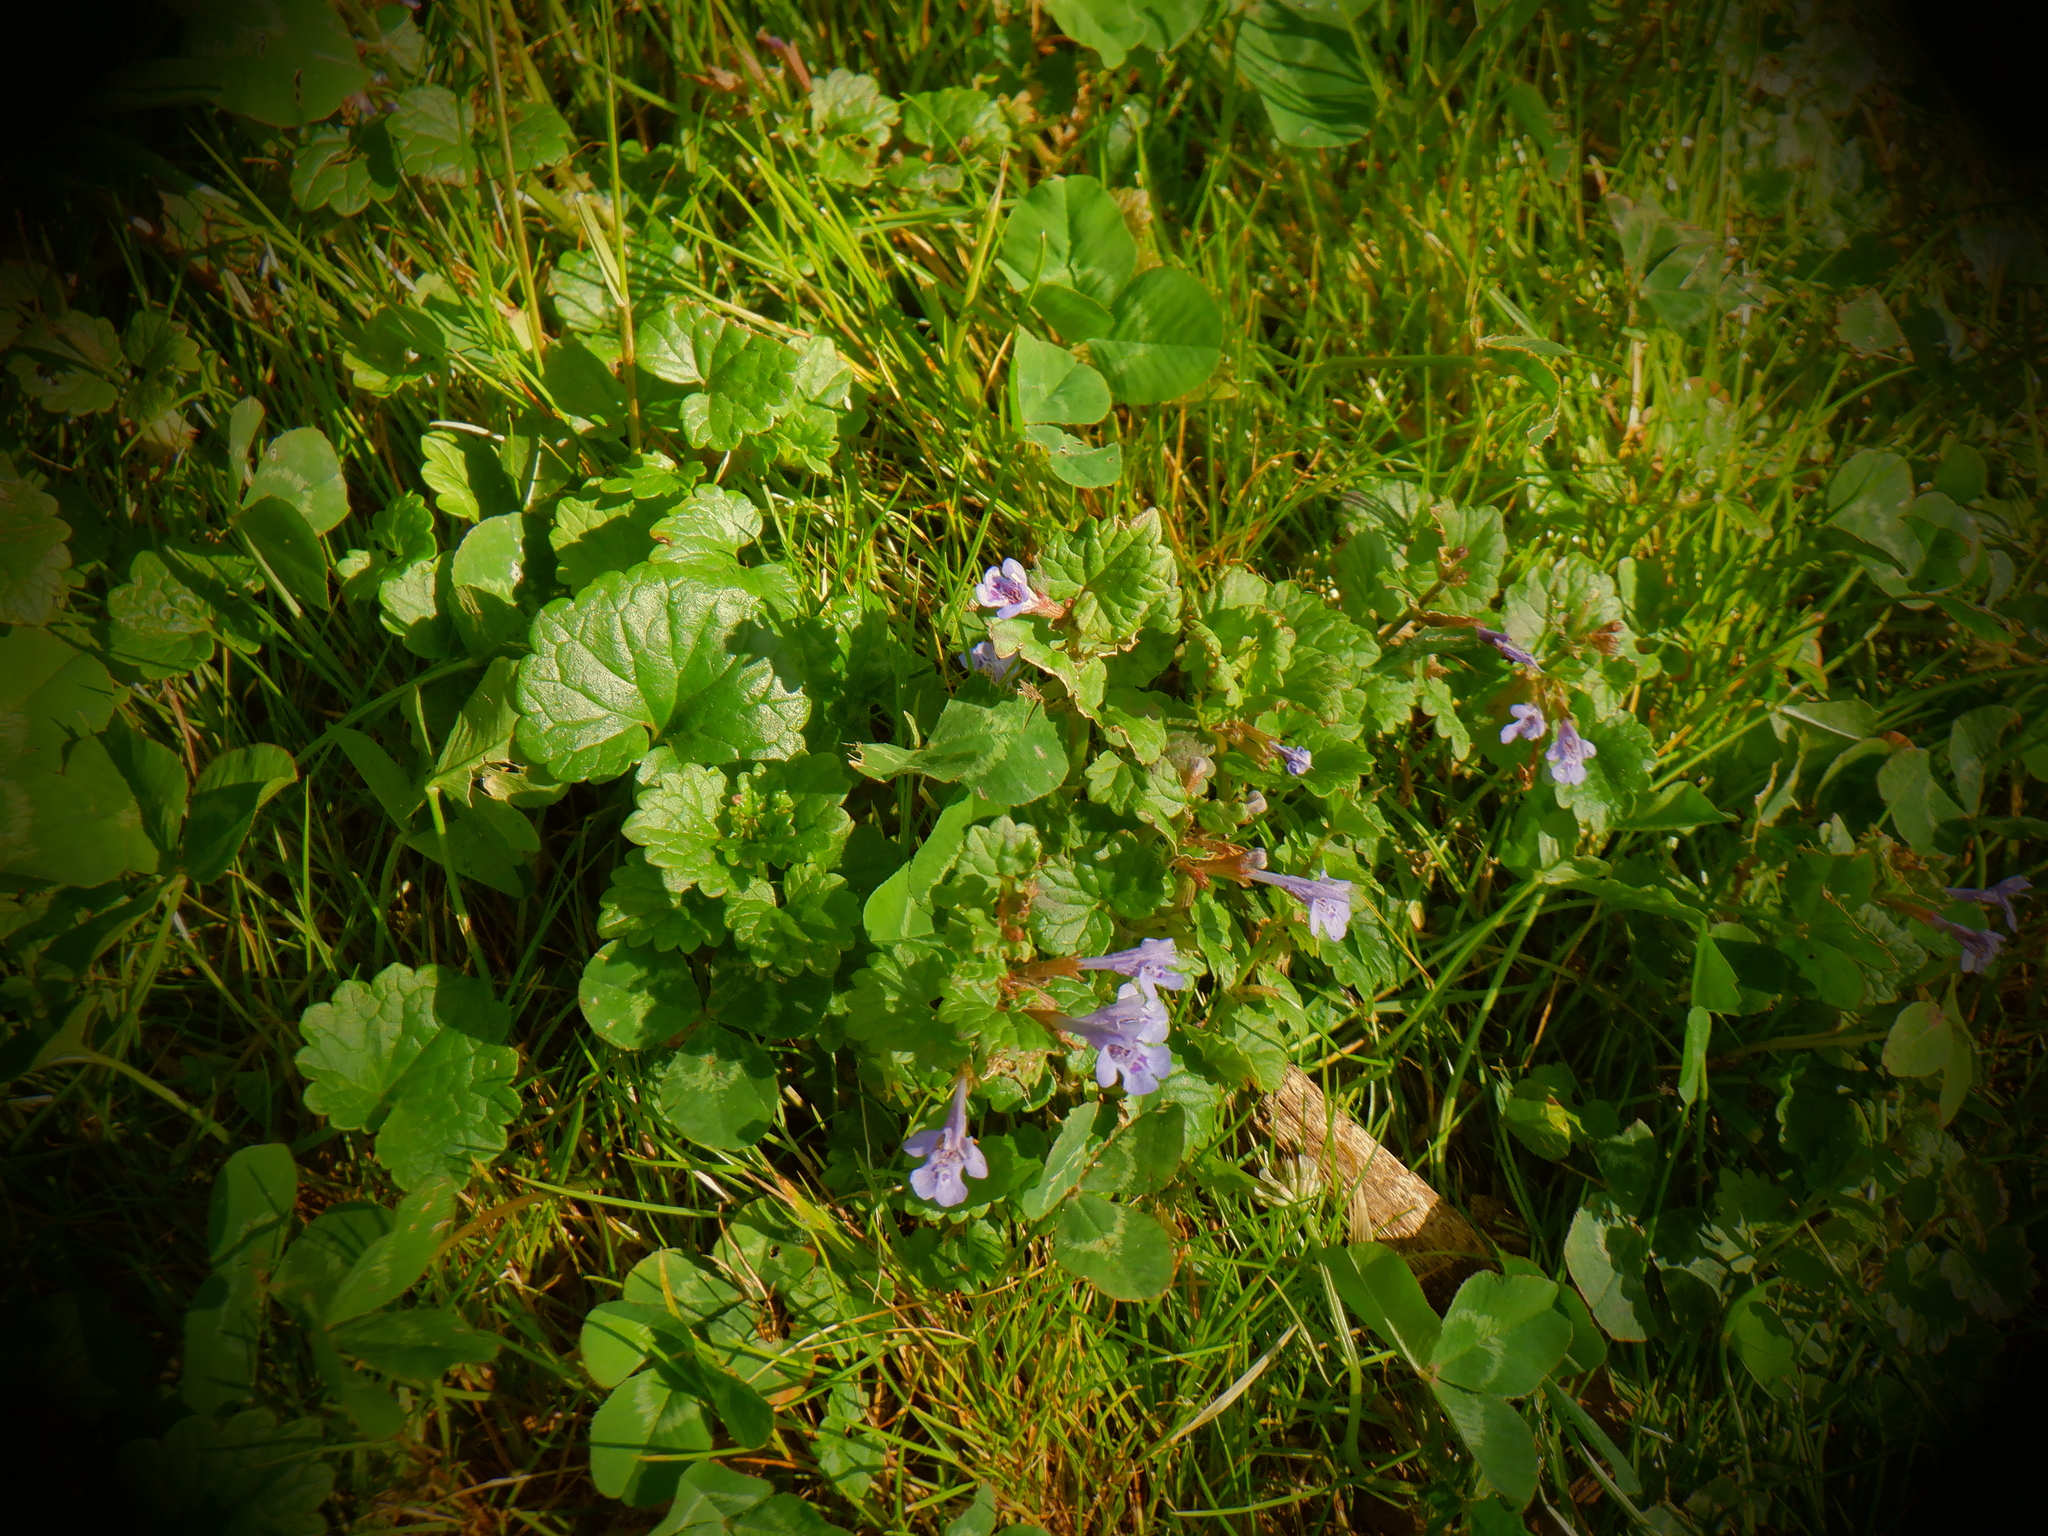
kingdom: Plantae
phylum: Tracheophyta
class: Magnoliopsida
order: Lamiales
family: Lamiaceae
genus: Glechoma
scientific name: Glechoma hederacea
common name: Ground ivy
